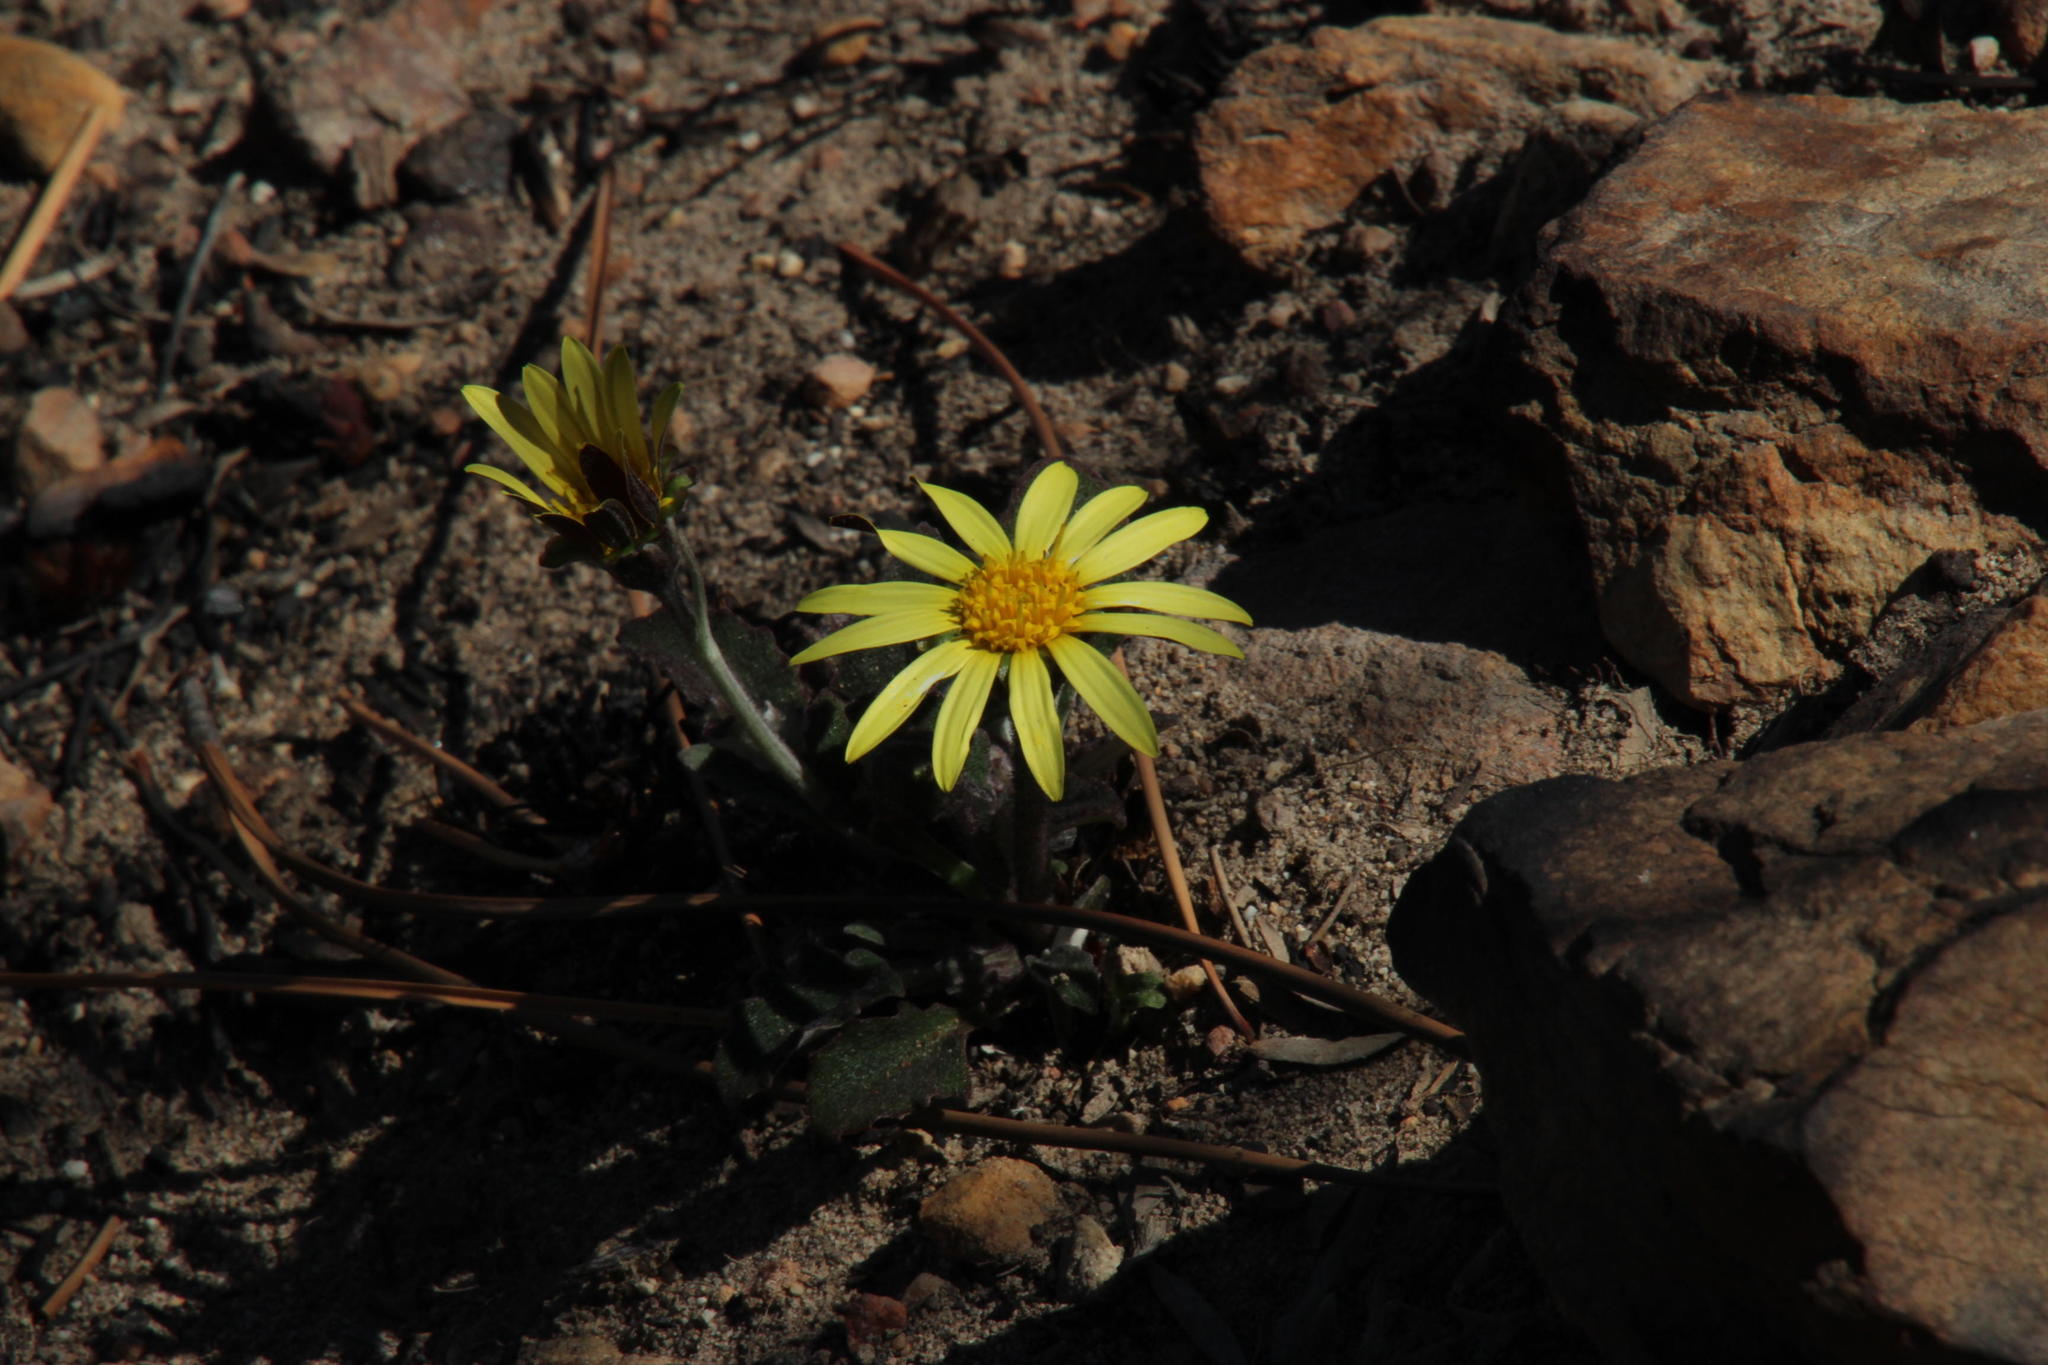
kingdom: Plantae
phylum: Tracheophyta
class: Magnoliopsida
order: Asterales
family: Asteraceae
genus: Haplocarpha
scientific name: Haplocarpha lanata
